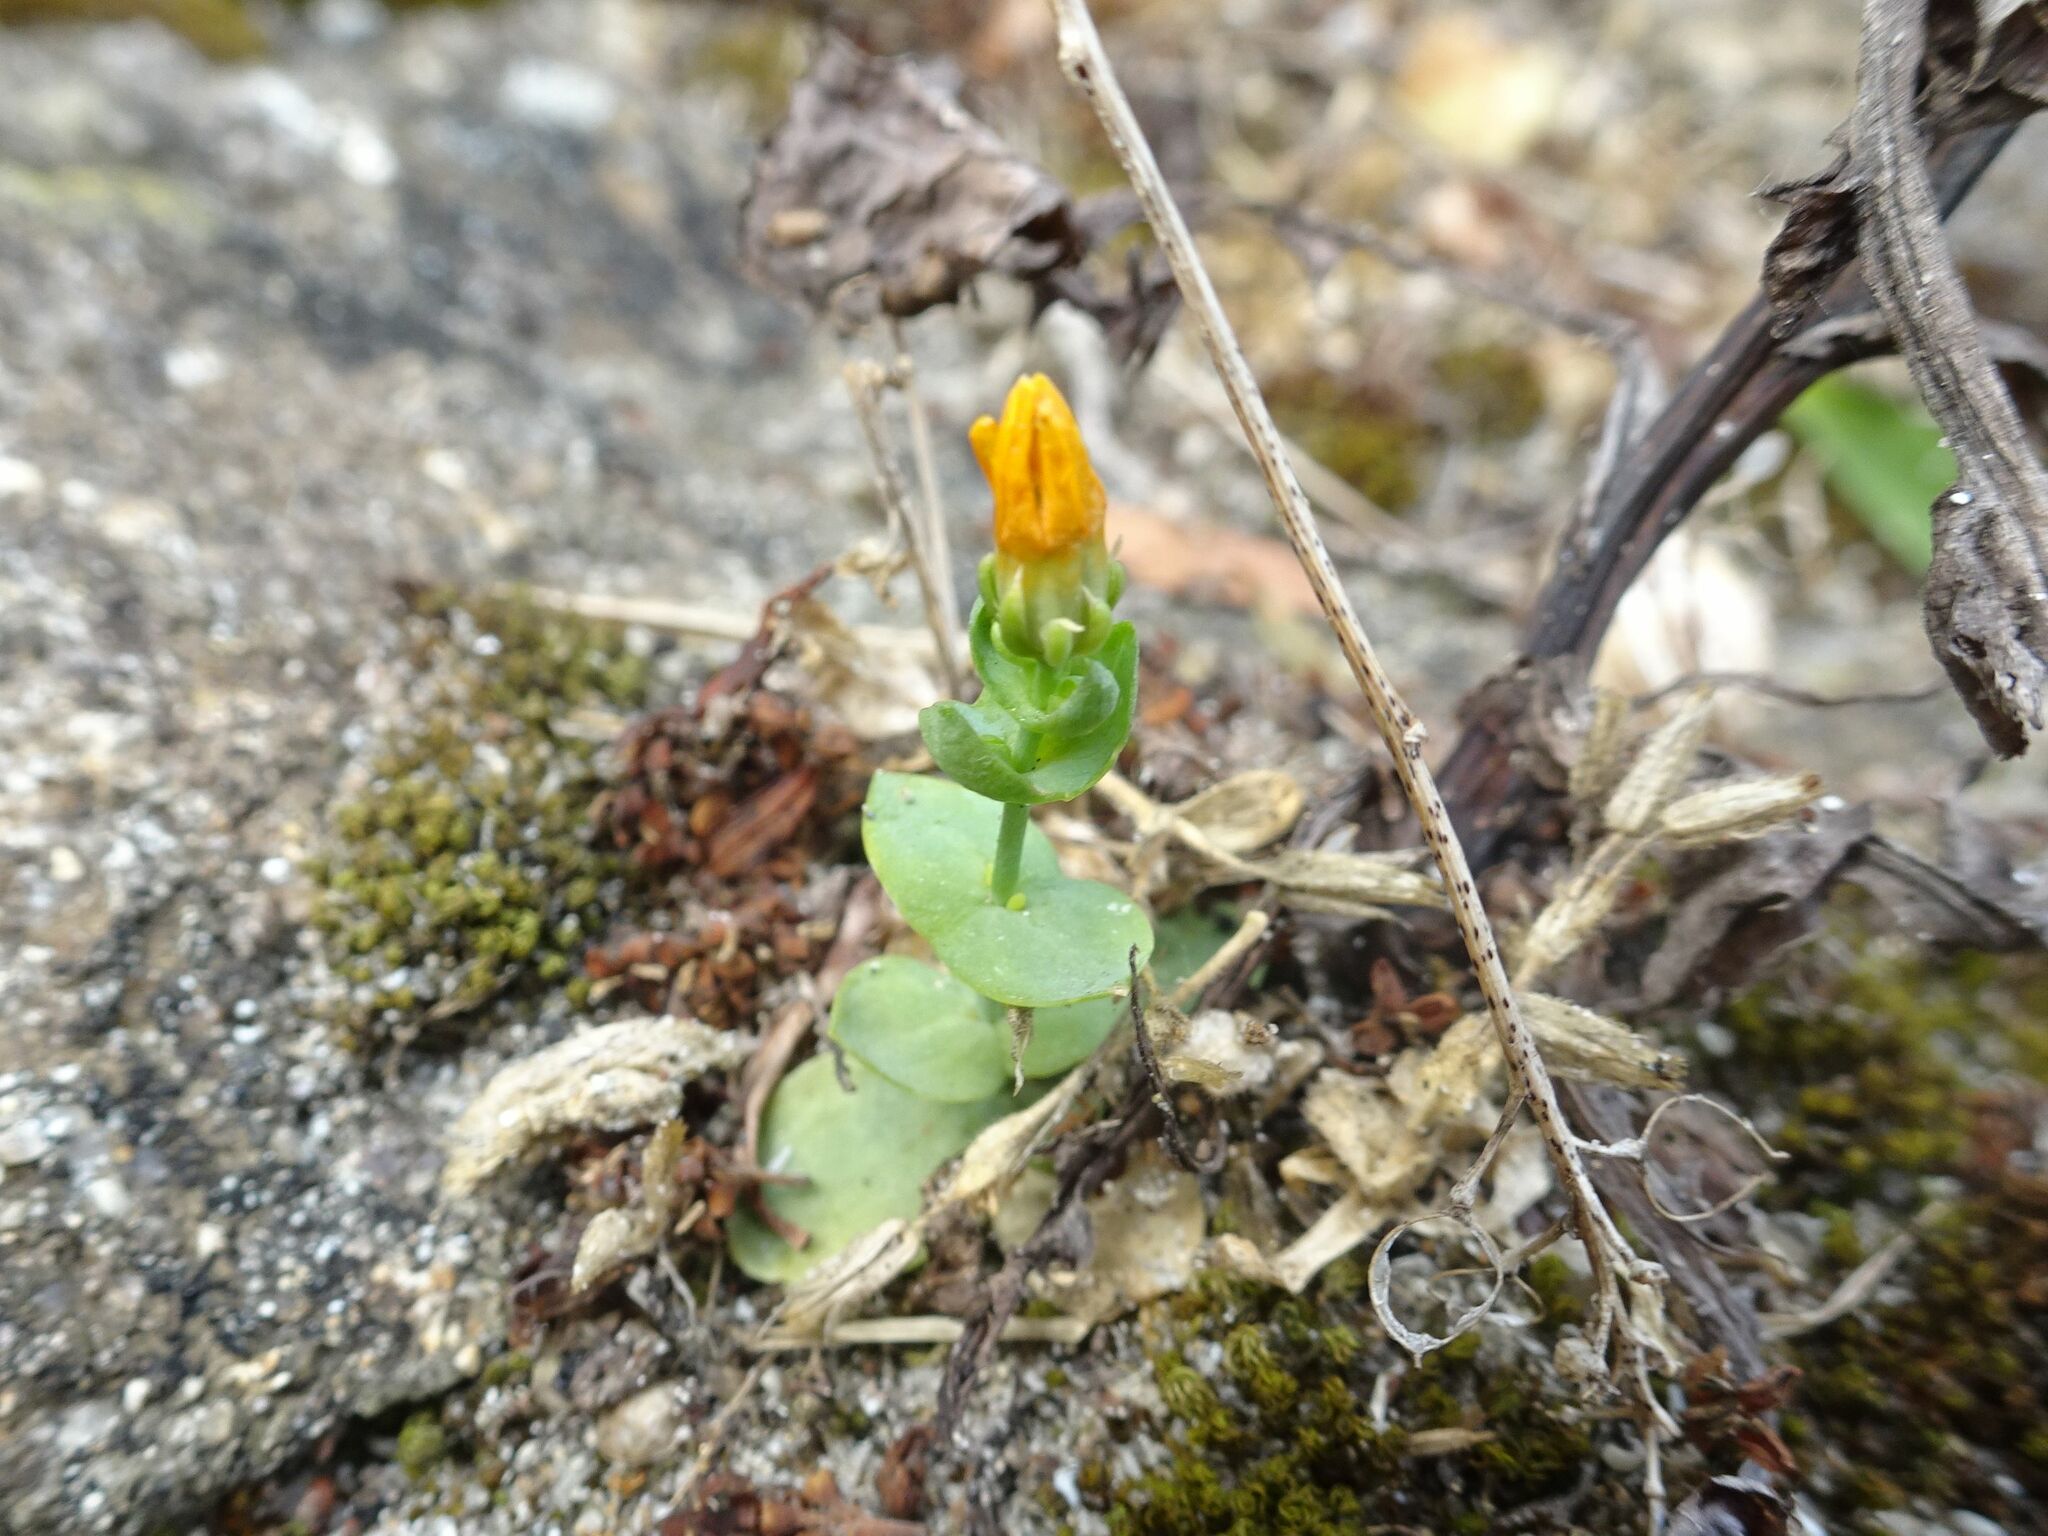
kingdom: Plantae
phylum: Tracheophyta
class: Magnoliopsida
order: Gentianales
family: Gentianaceae
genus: Blackstonia
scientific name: Blackstonia perfoliata
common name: Yellow-wort
